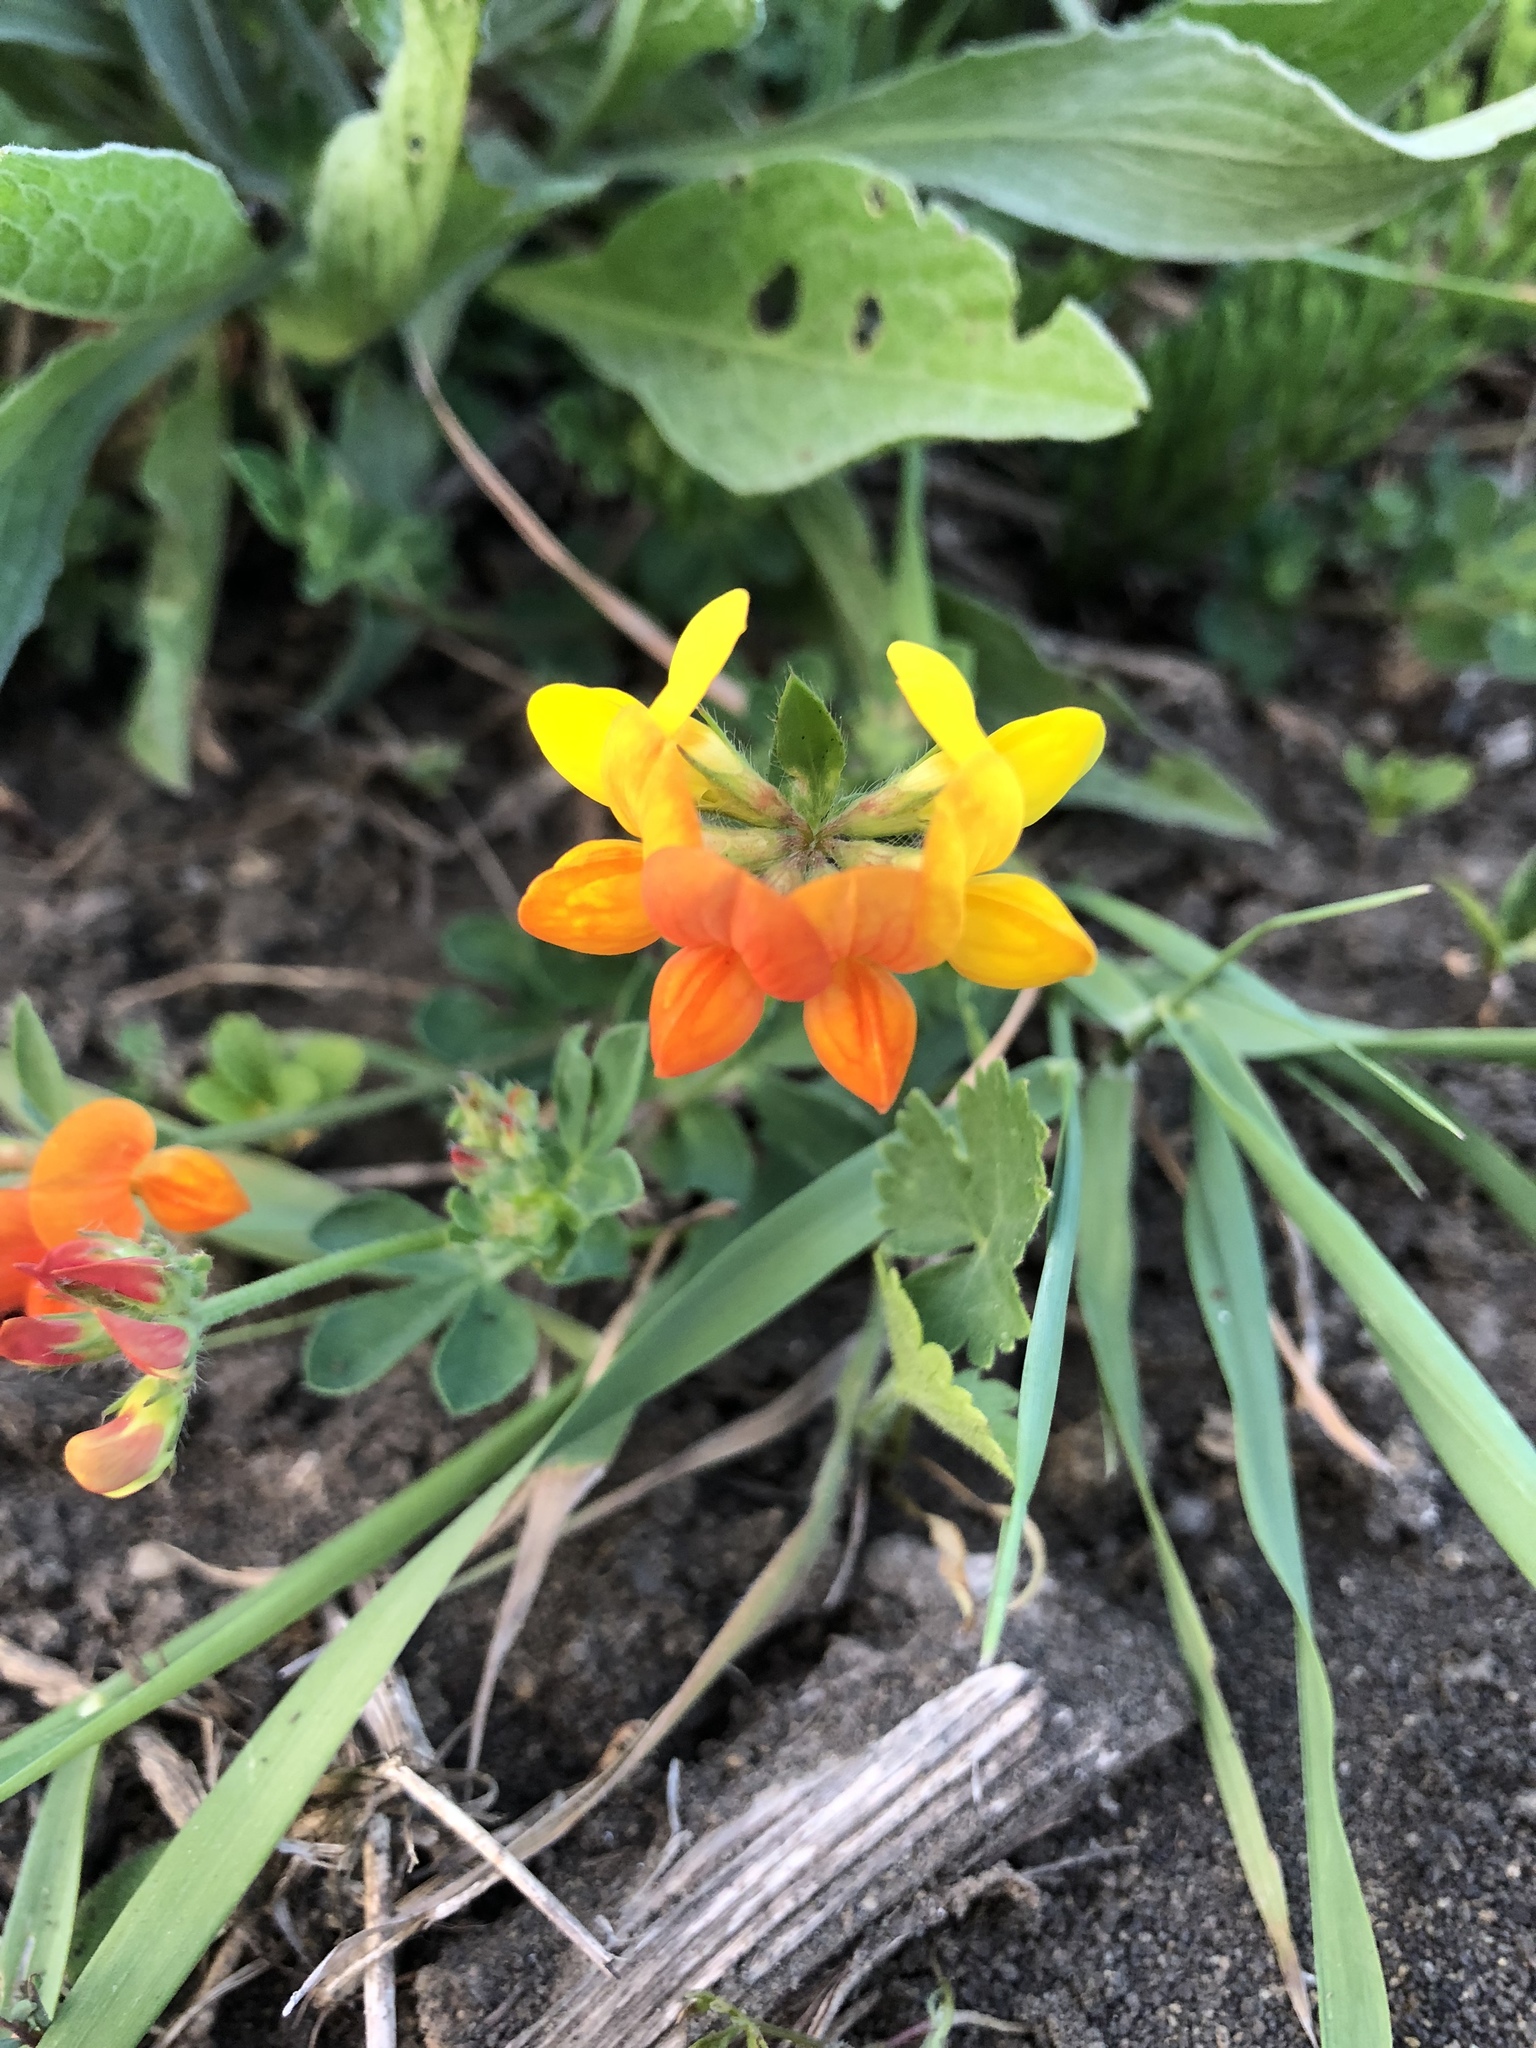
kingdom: Plantae
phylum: Tracheophyta
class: Magnoliopsida
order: Fabales
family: Fabaceae
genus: Lotus
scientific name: Lotus corniculatus
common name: Common bird's-foot-trefoil
